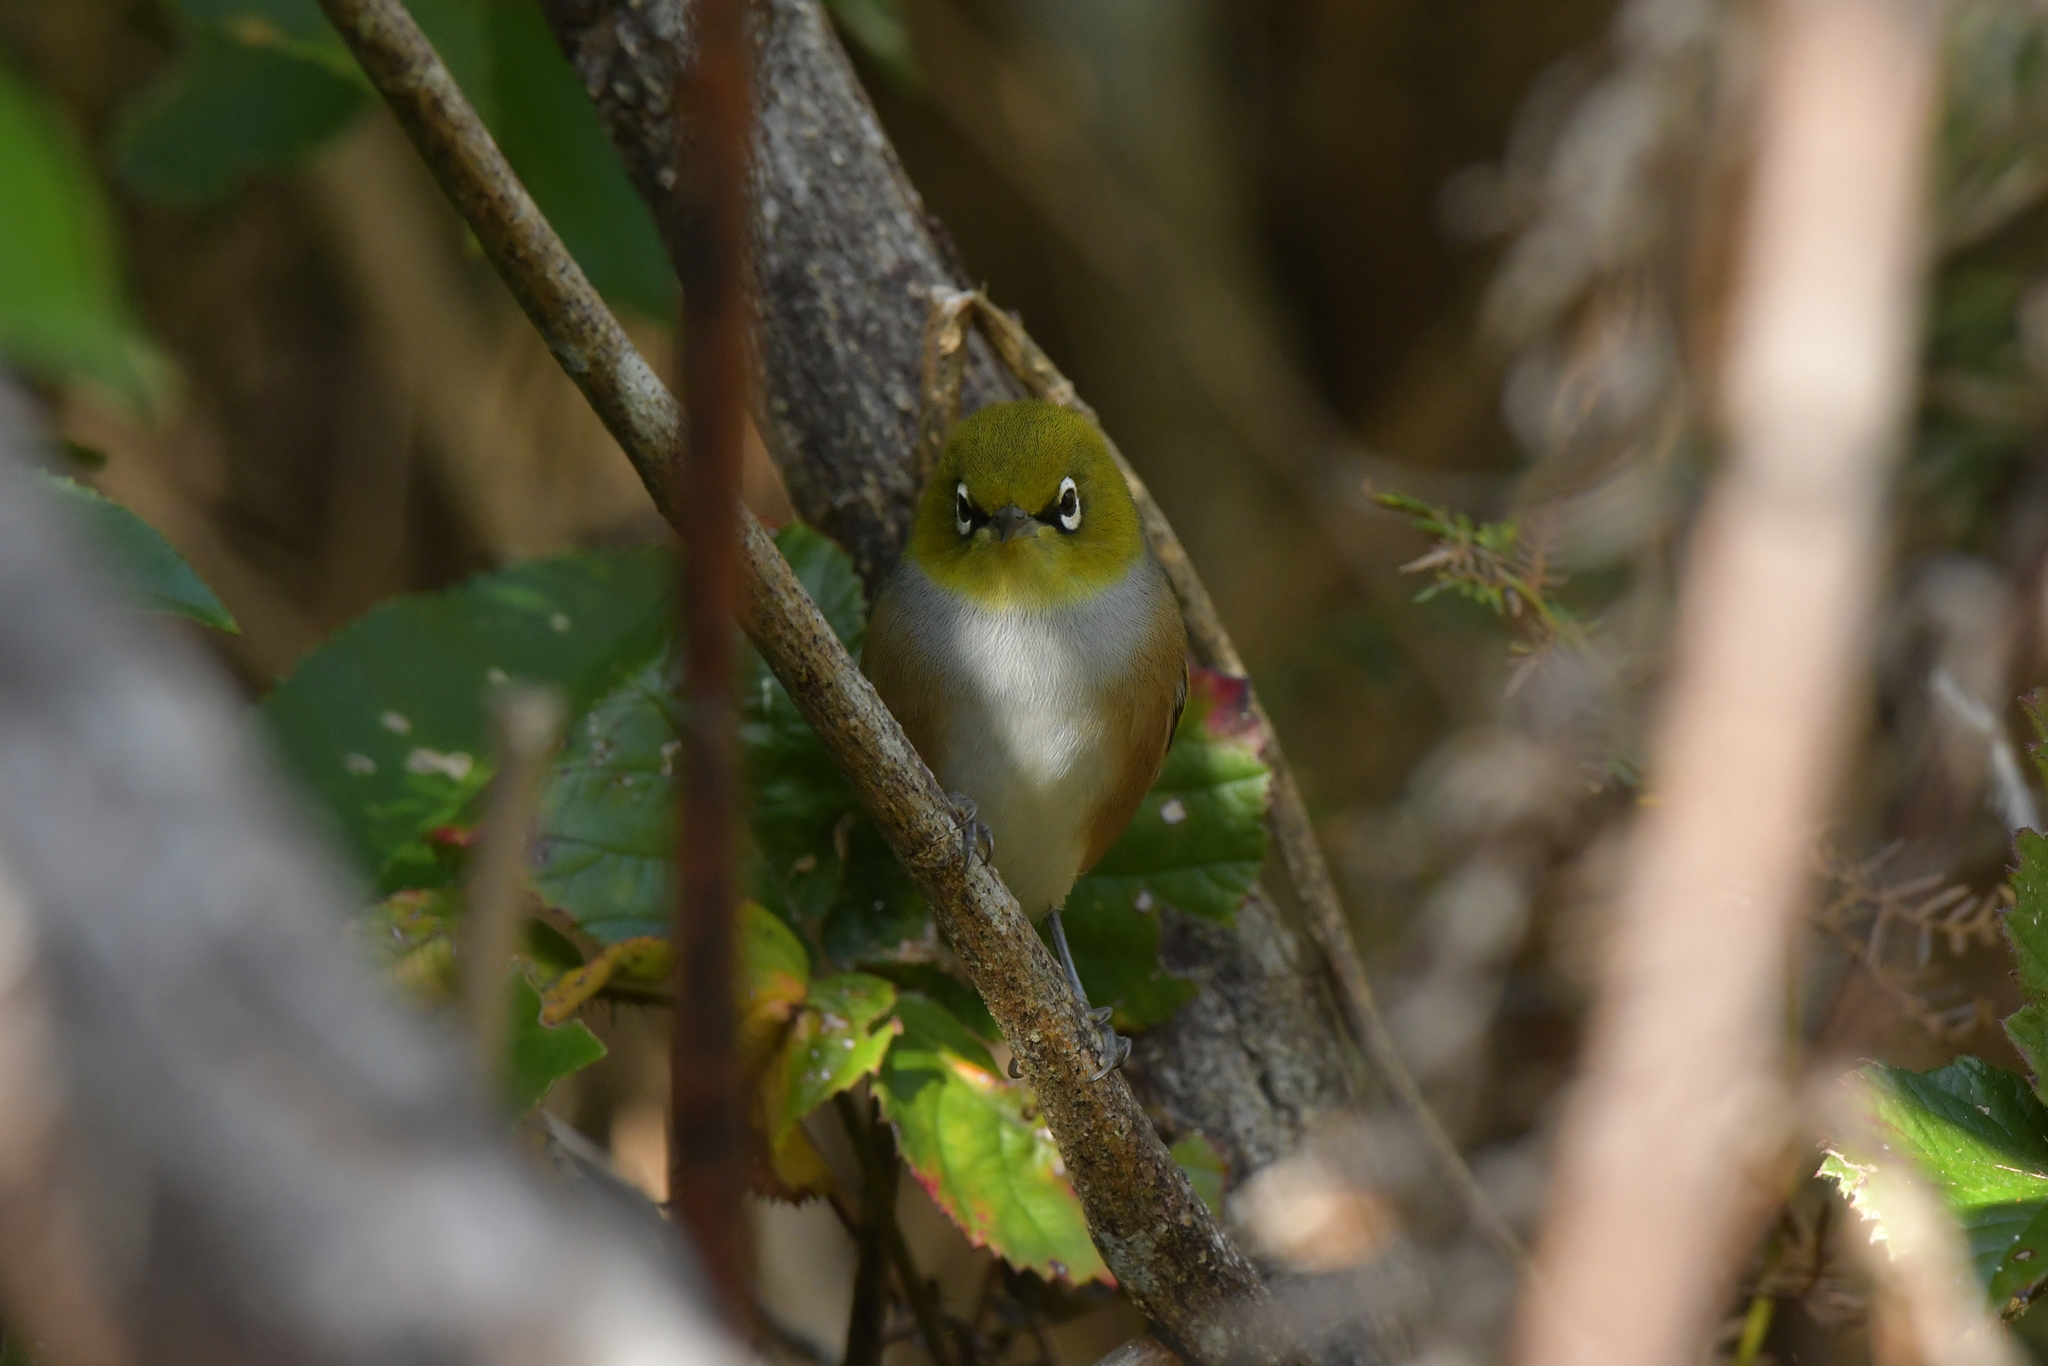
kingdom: Animalia
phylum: Chordata
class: Aves
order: Passeriformes
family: Zosteropidae
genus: Zosterops
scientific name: Zosterops lateralis
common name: Silvereye
